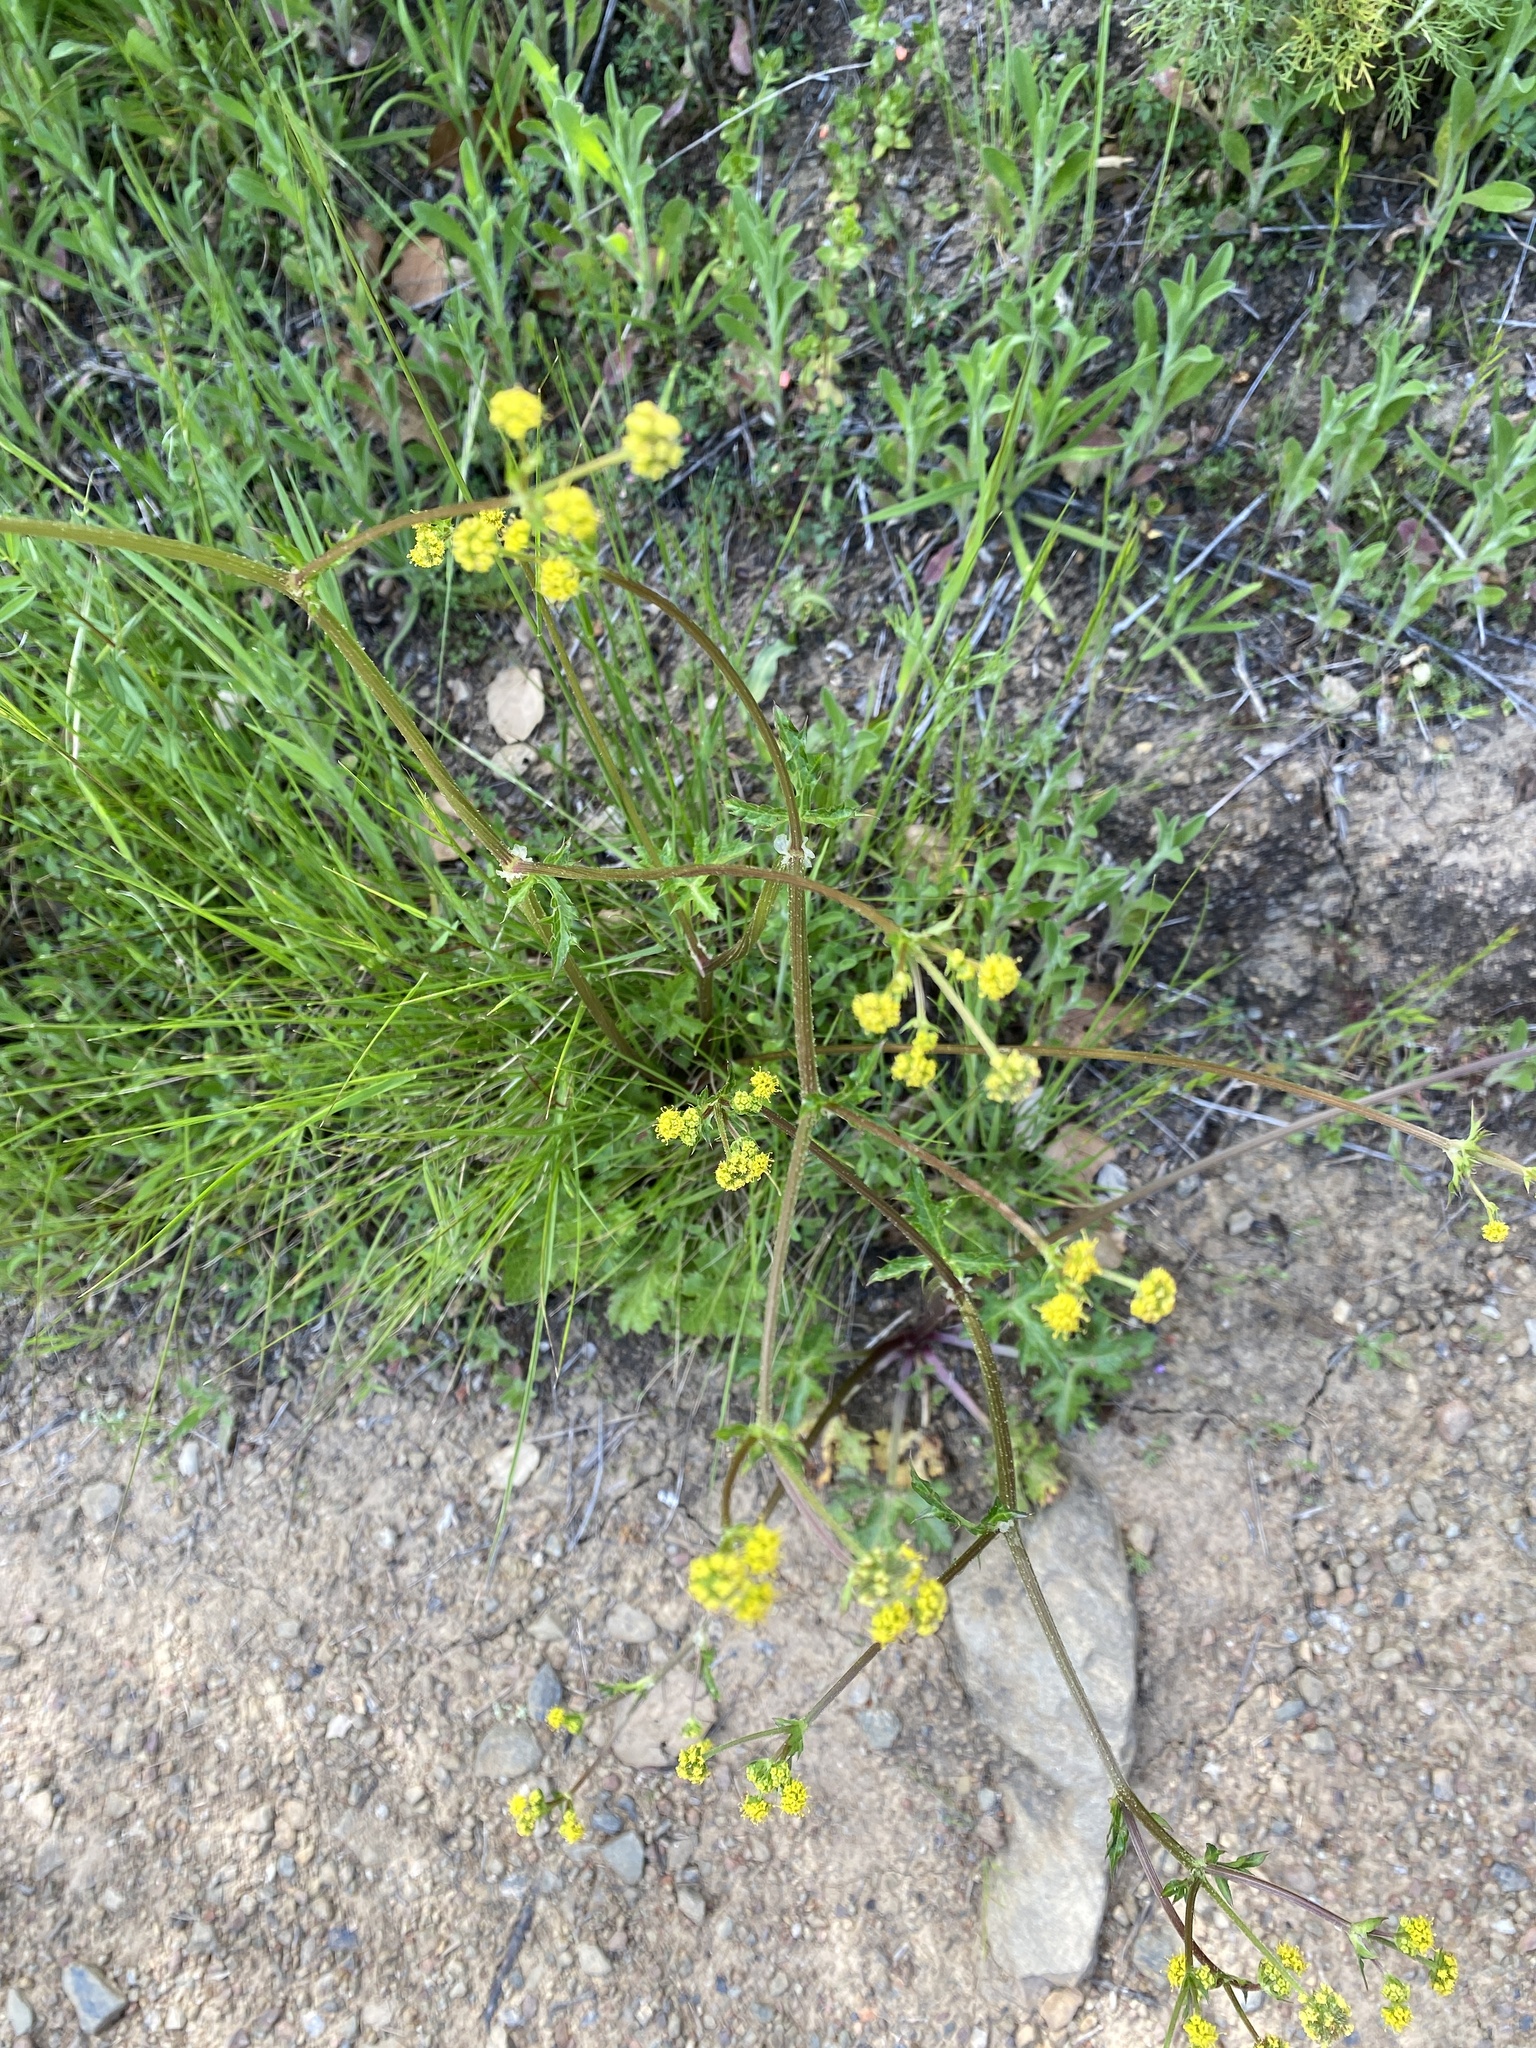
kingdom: Plantae
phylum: Tracheophyta
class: Magnoliopsida
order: Apiales
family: Apiaceae
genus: Sanicula
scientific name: Sanicula crassicaulis
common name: Western snakeroot
